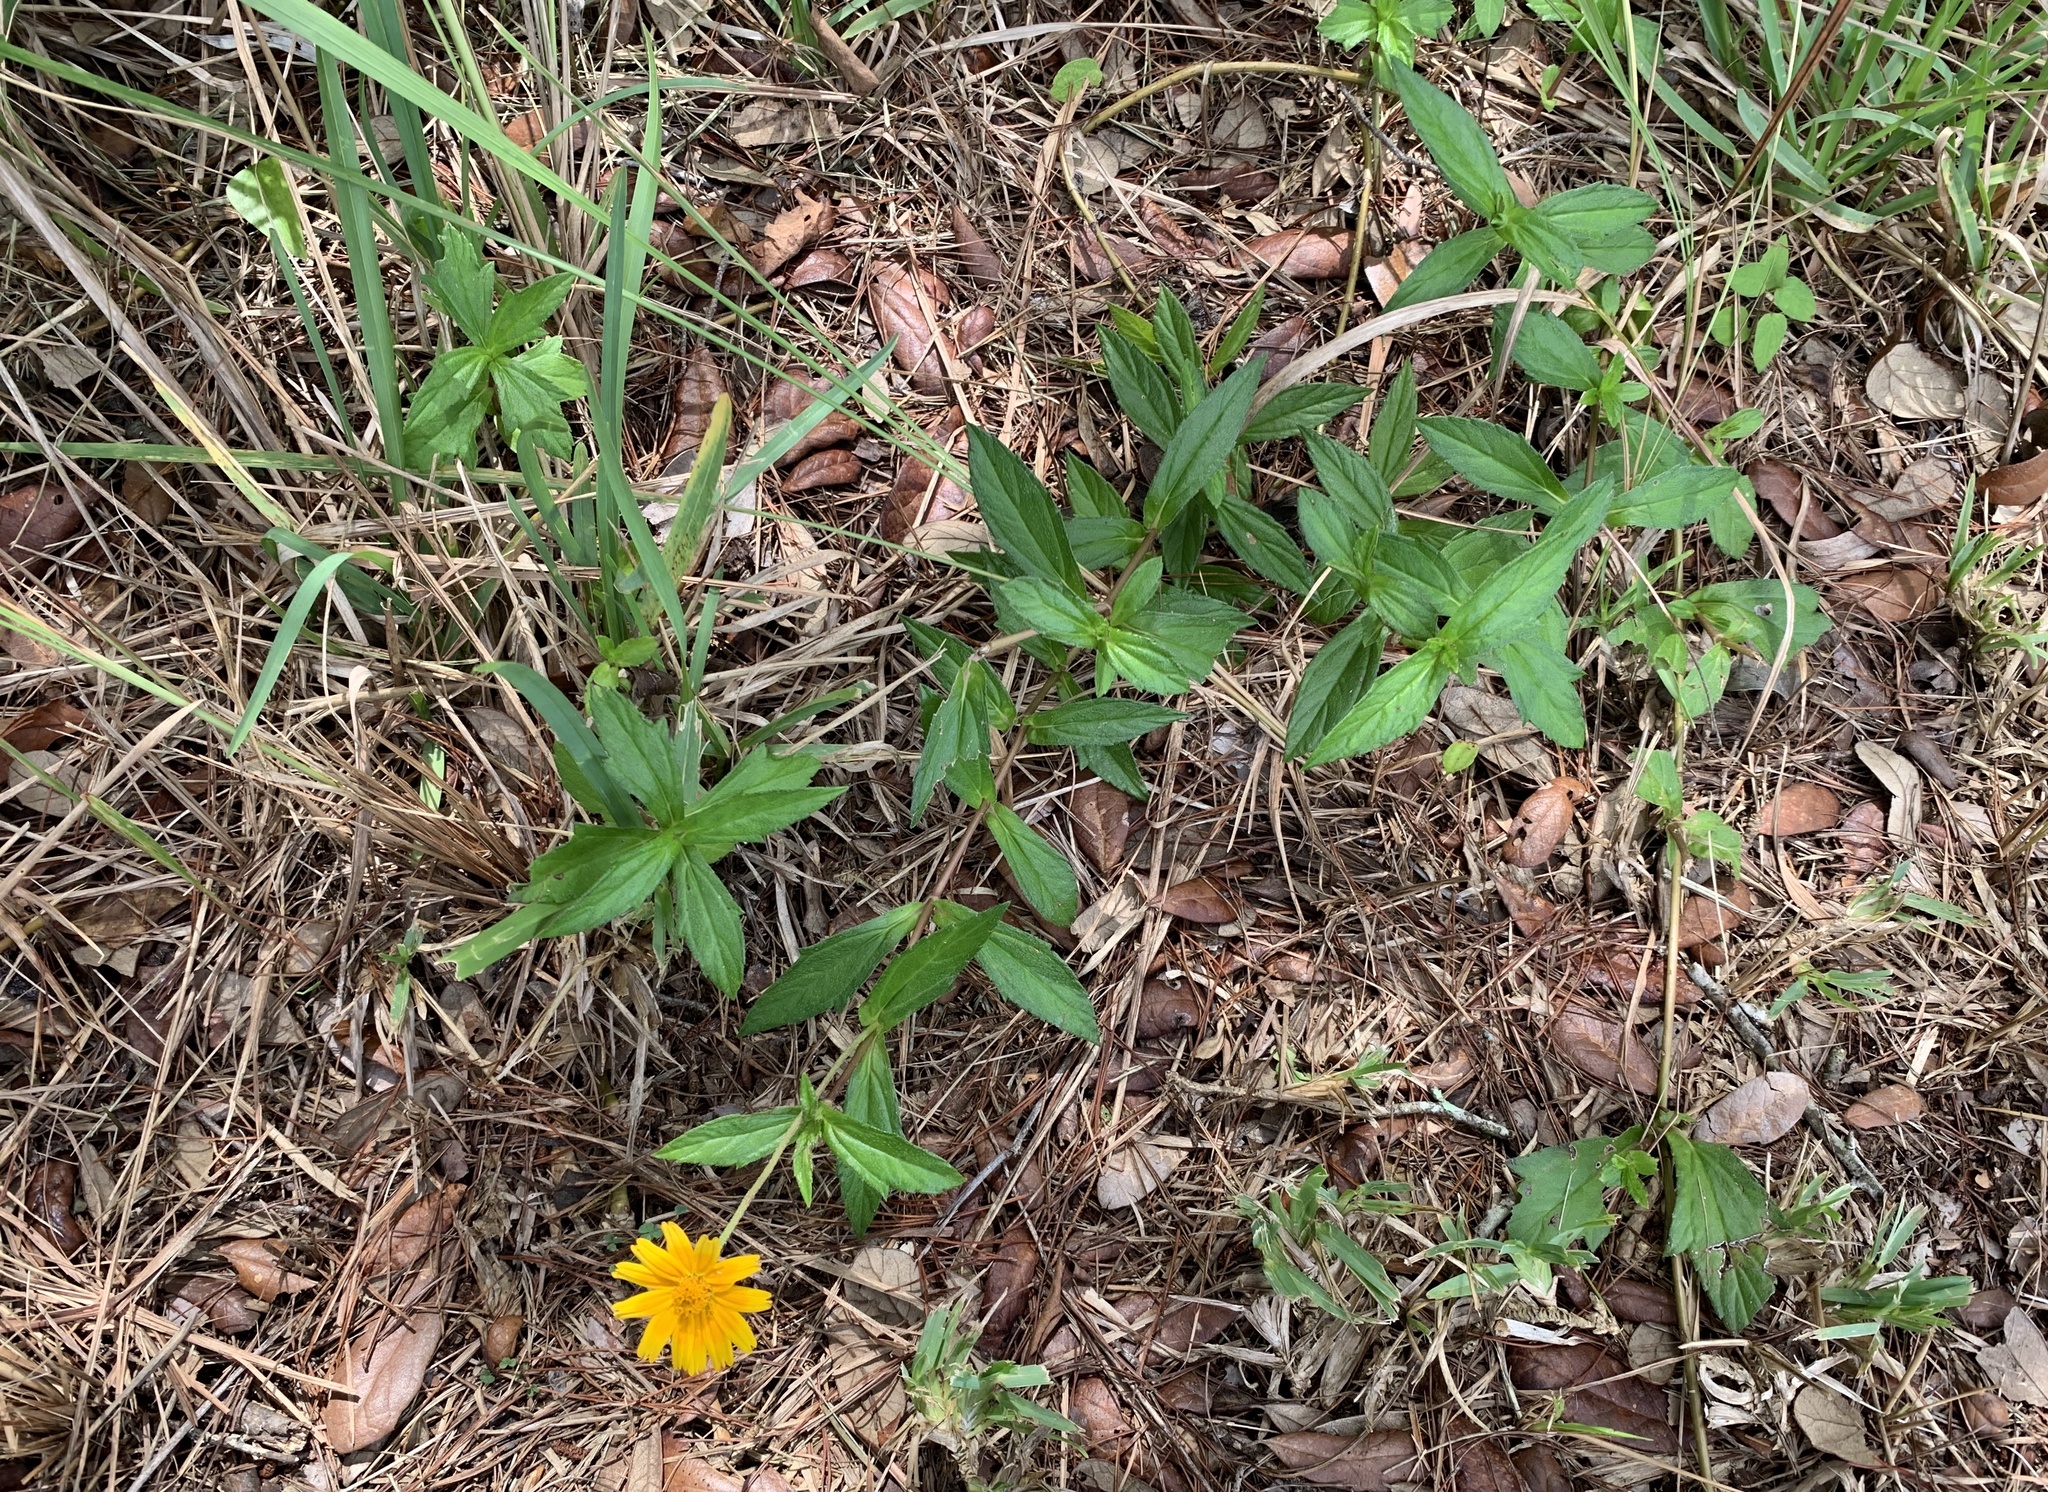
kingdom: Plantae
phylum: Tracheophyta
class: Magnoliopsida
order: Asterales
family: Asteraceae
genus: Sphagneticola
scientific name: Sphagneticola trilobata
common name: Bay biscayne creeping-oxeye
